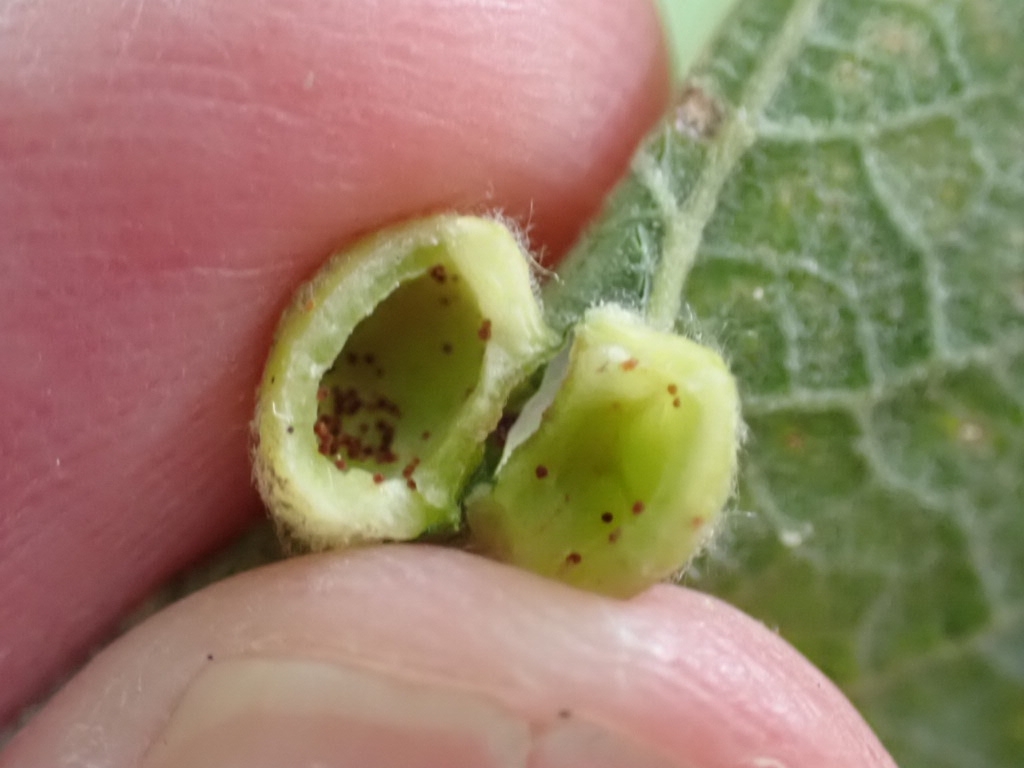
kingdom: Animalia
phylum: Arthropoda
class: Insecta
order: Hymenoptera
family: Tenthredinidae
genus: Pontania
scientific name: Pontania pedunculi
